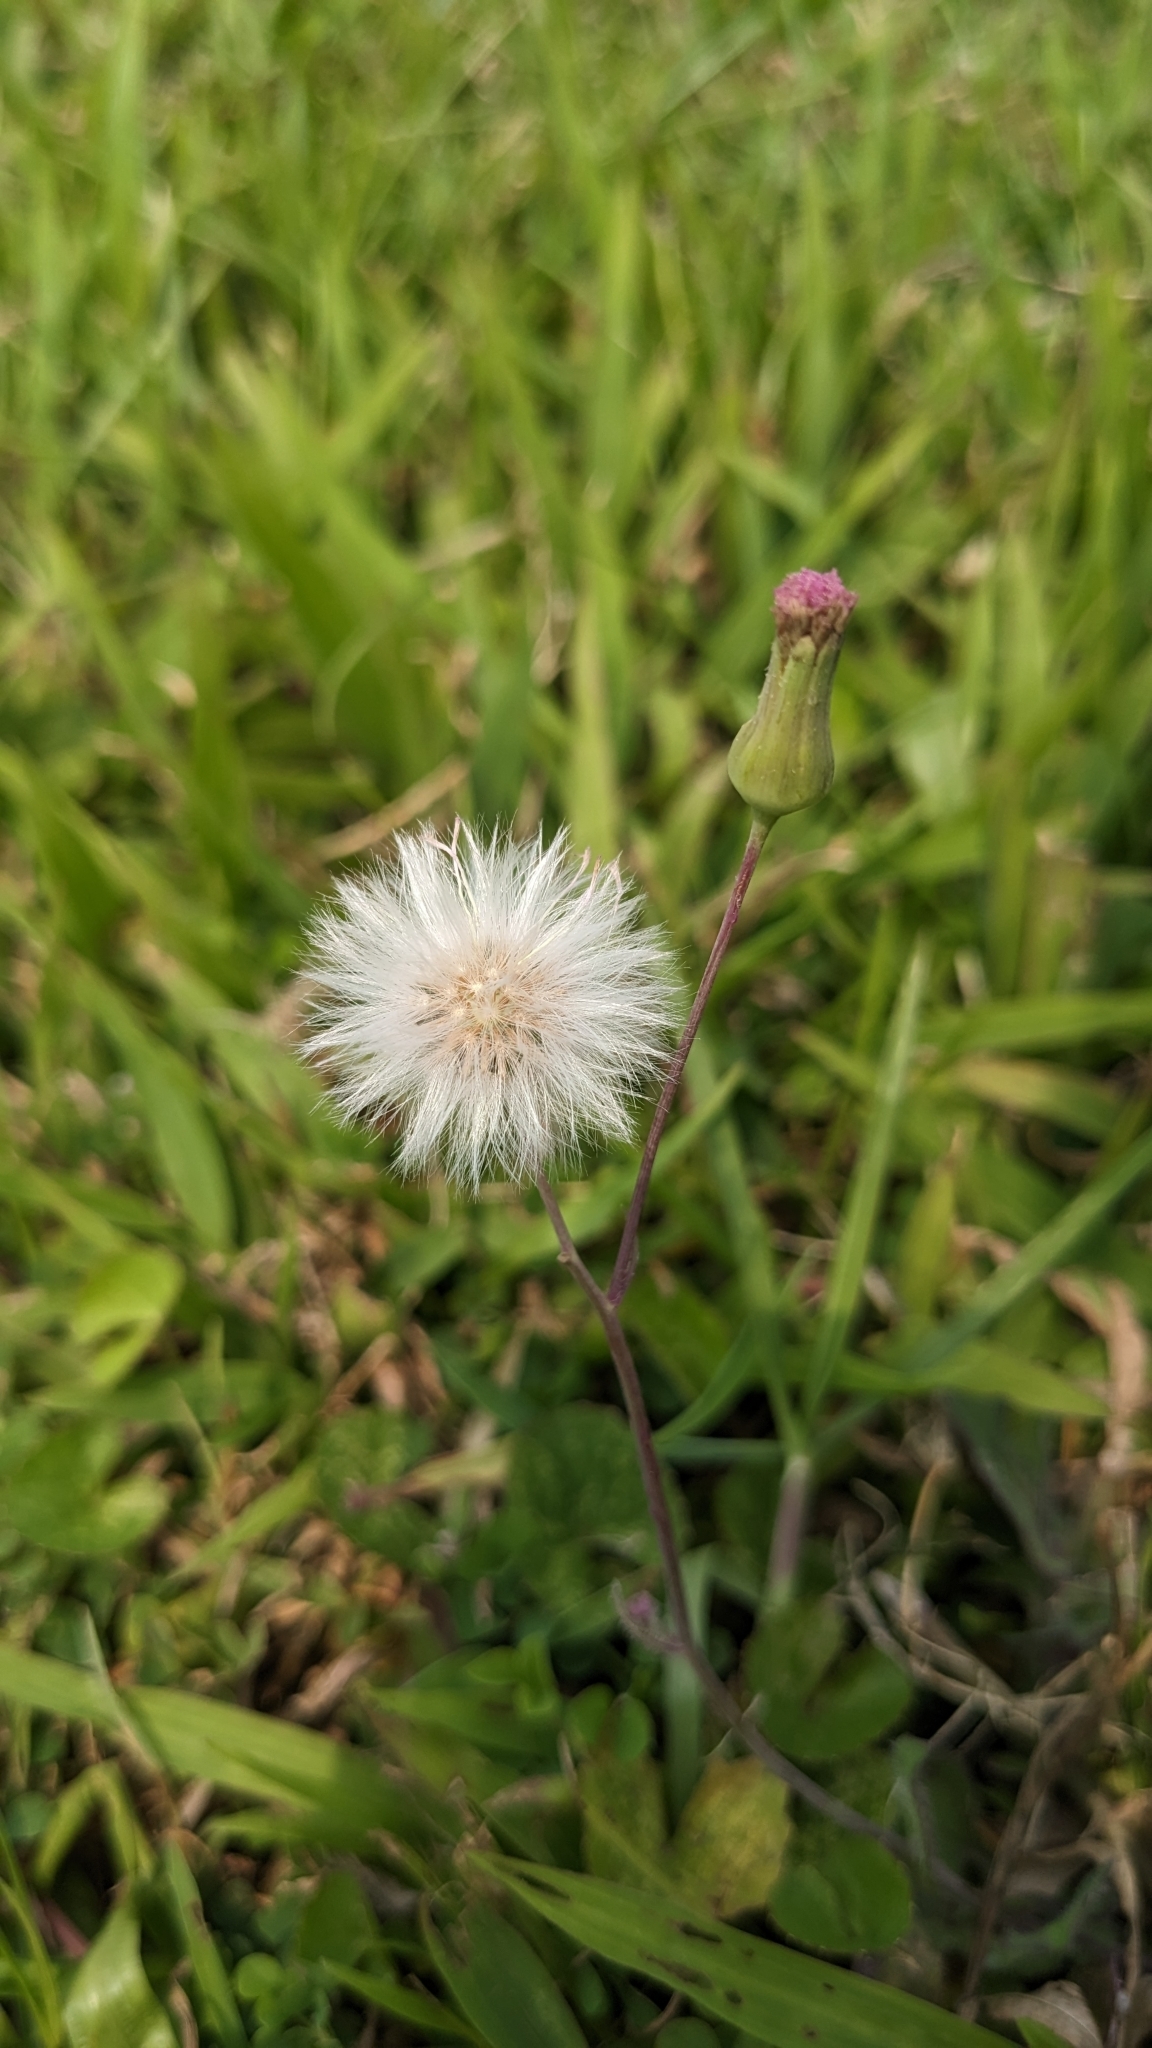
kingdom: Plantae
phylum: Tracheophyta
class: Magnoliopsida
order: Asterales
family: Asteraceae
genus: Emilia
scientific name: Emilia javanica
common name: Tassel-flower
